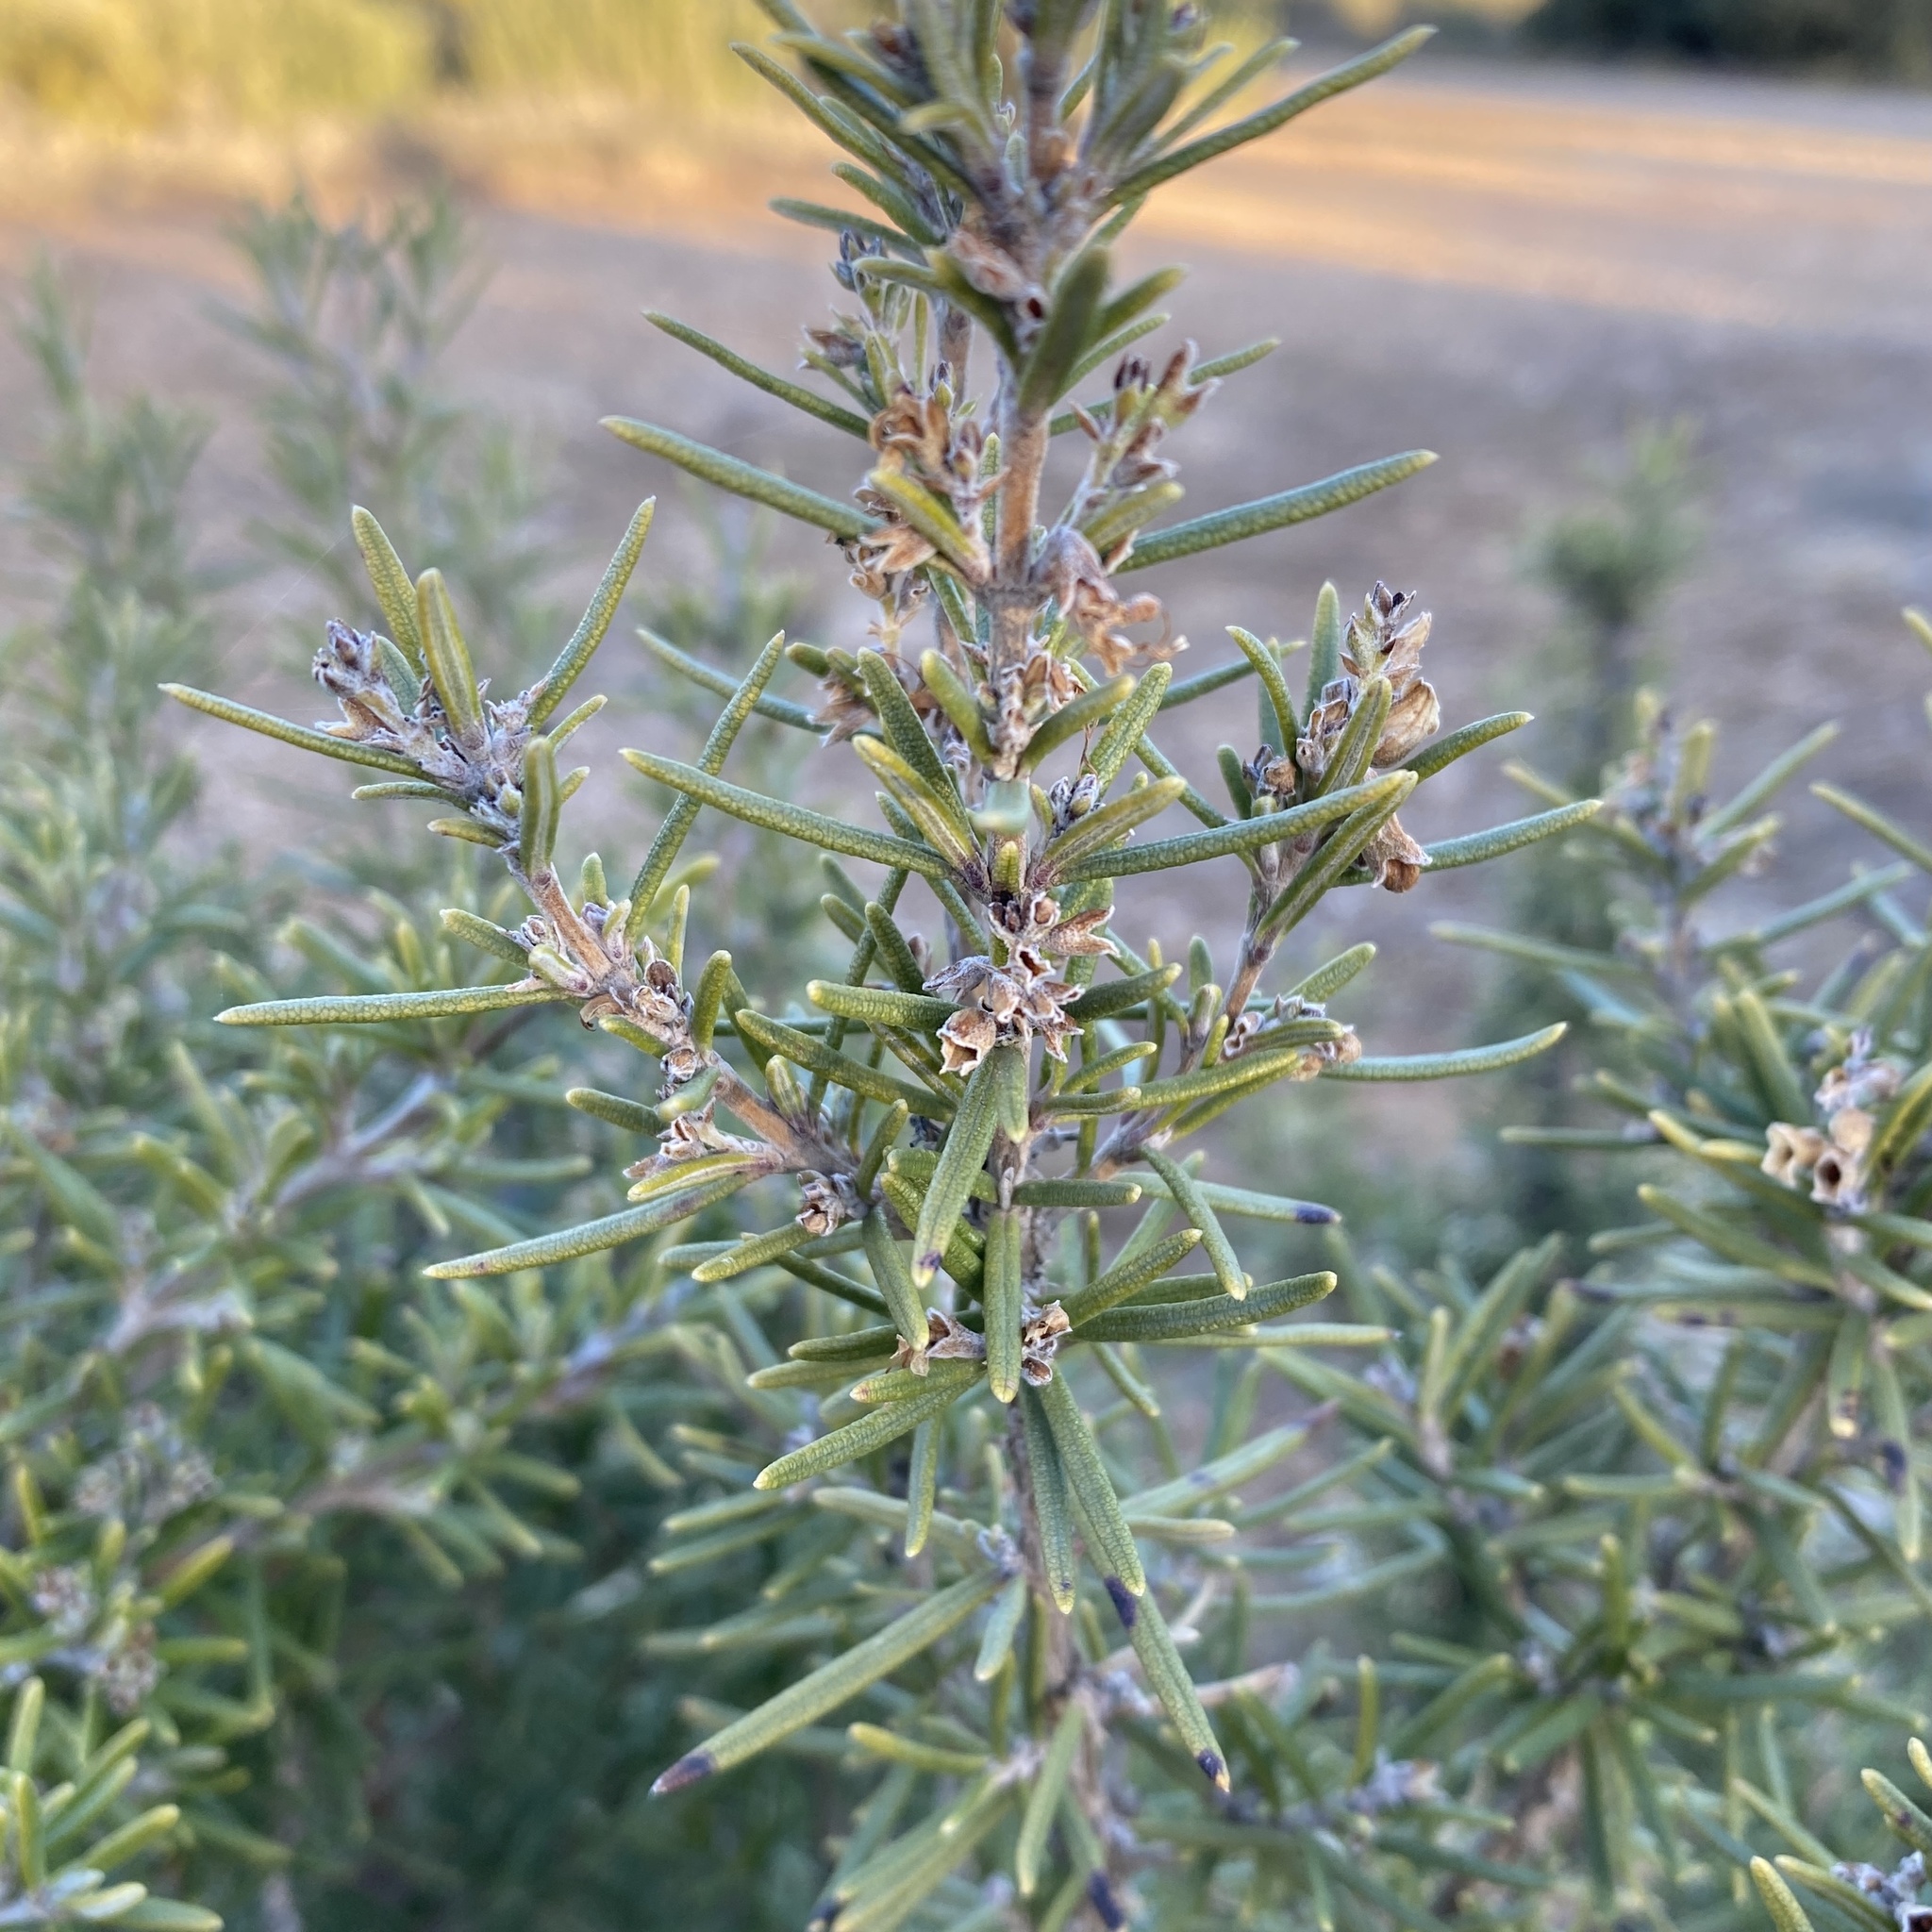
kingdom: Plantae
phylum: Tracheophyta
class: Magnoliopsida
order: Lamiales
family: Lamiaceae
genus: Salvia
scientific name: Salvia rosmarinus
